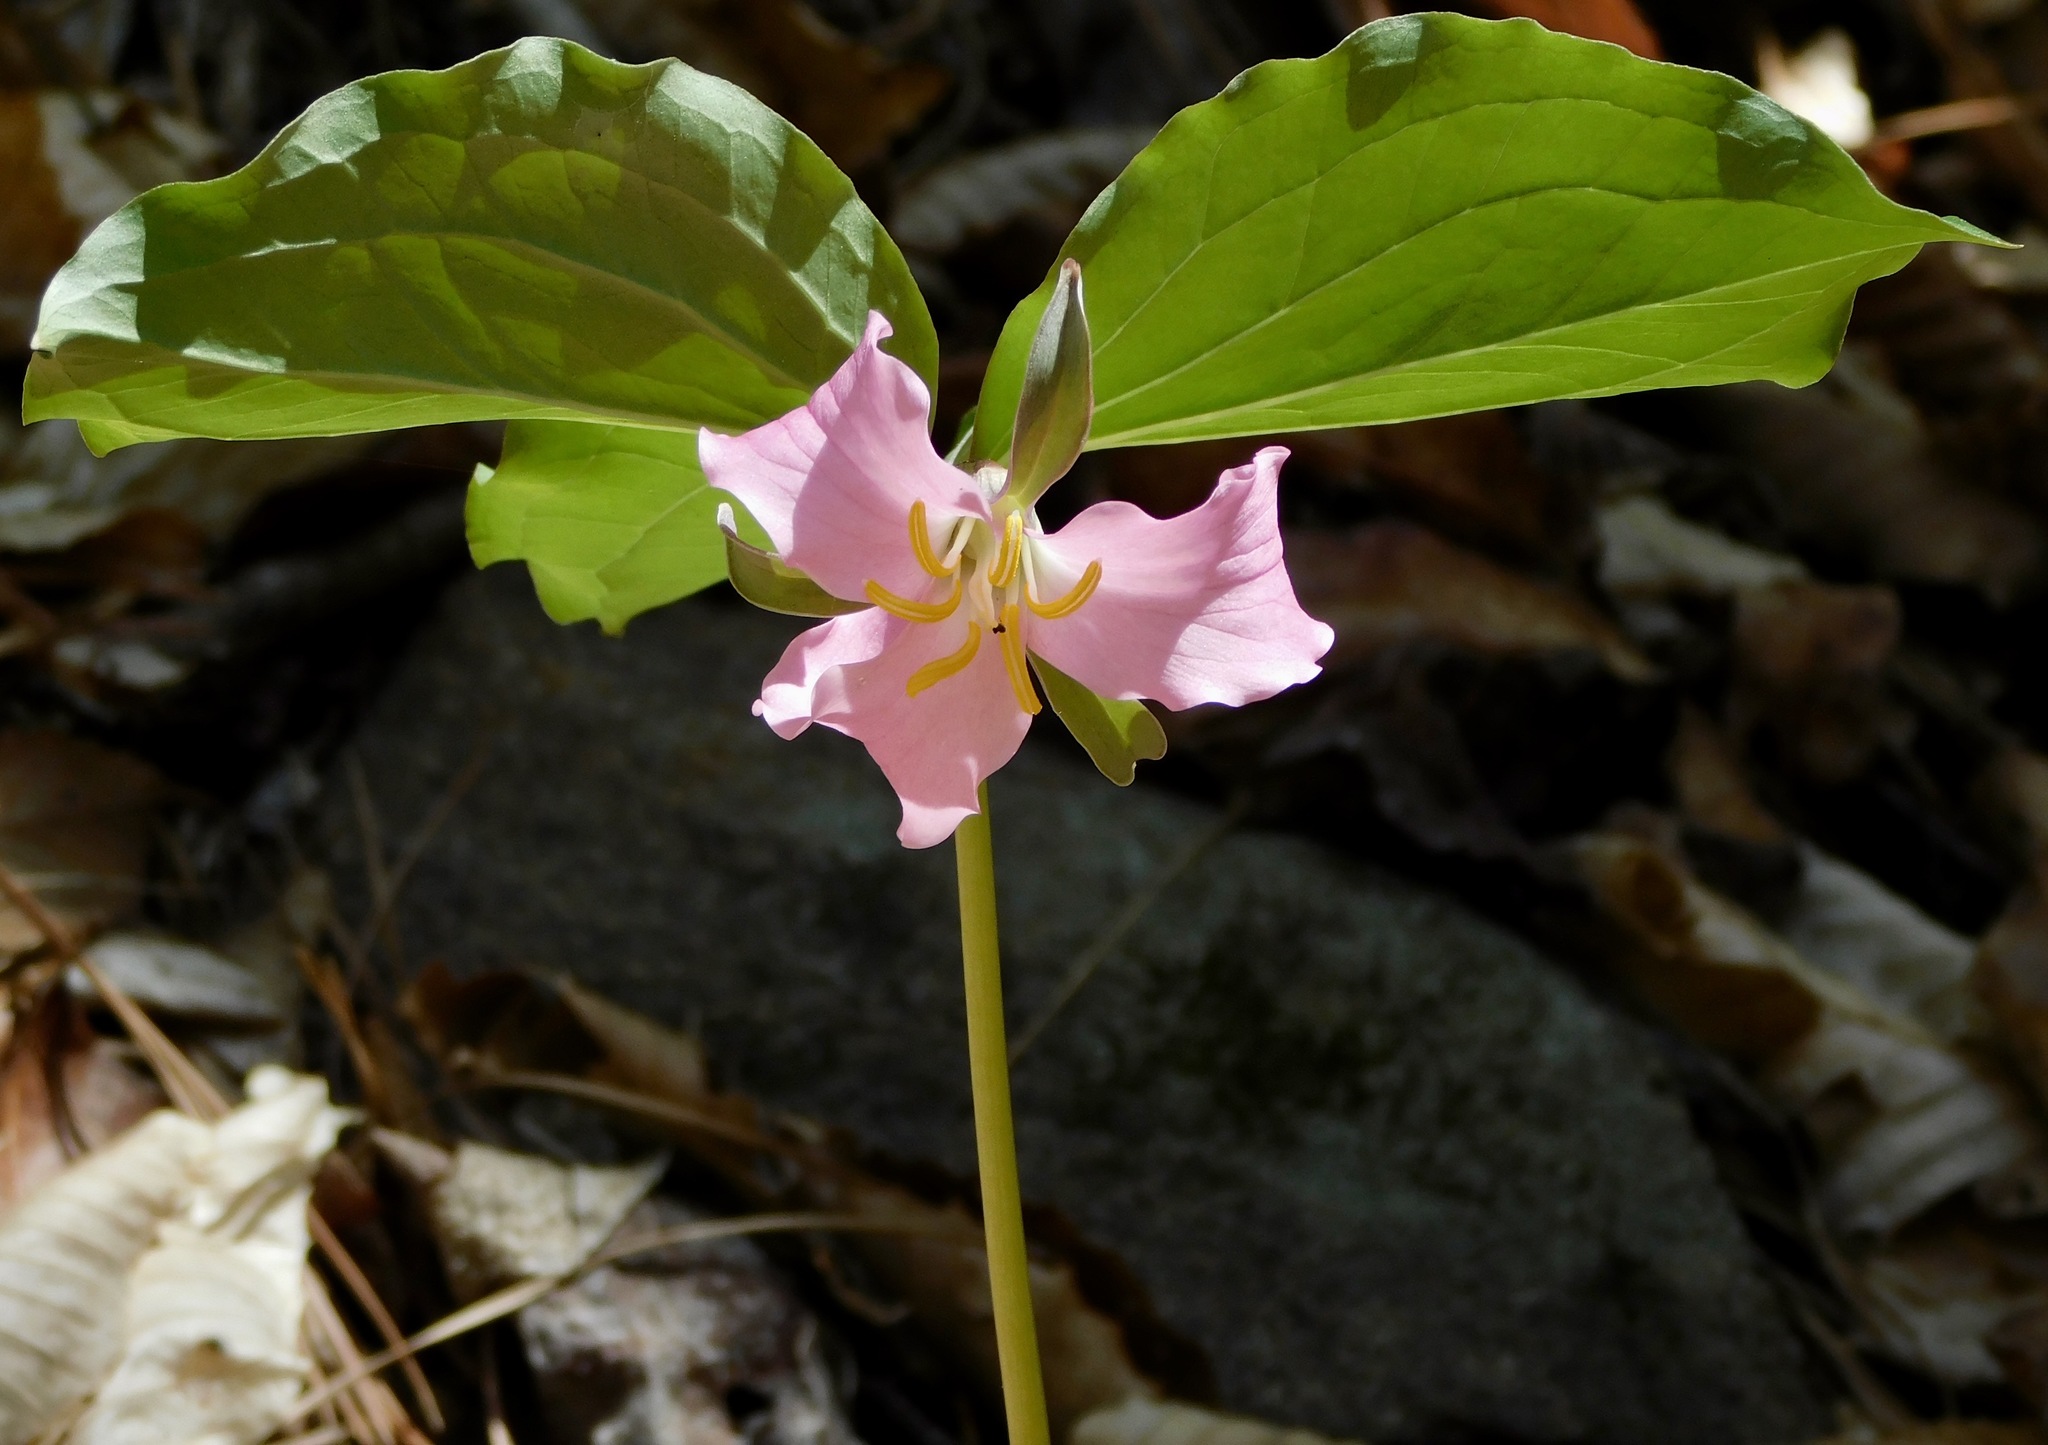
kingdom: Plantae
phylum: Tracheophyta
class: Liliopsida
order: Liliales
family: Melanthiaceae
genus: Trillium
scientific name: Trillium catesbaei
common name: Bashful trillium
